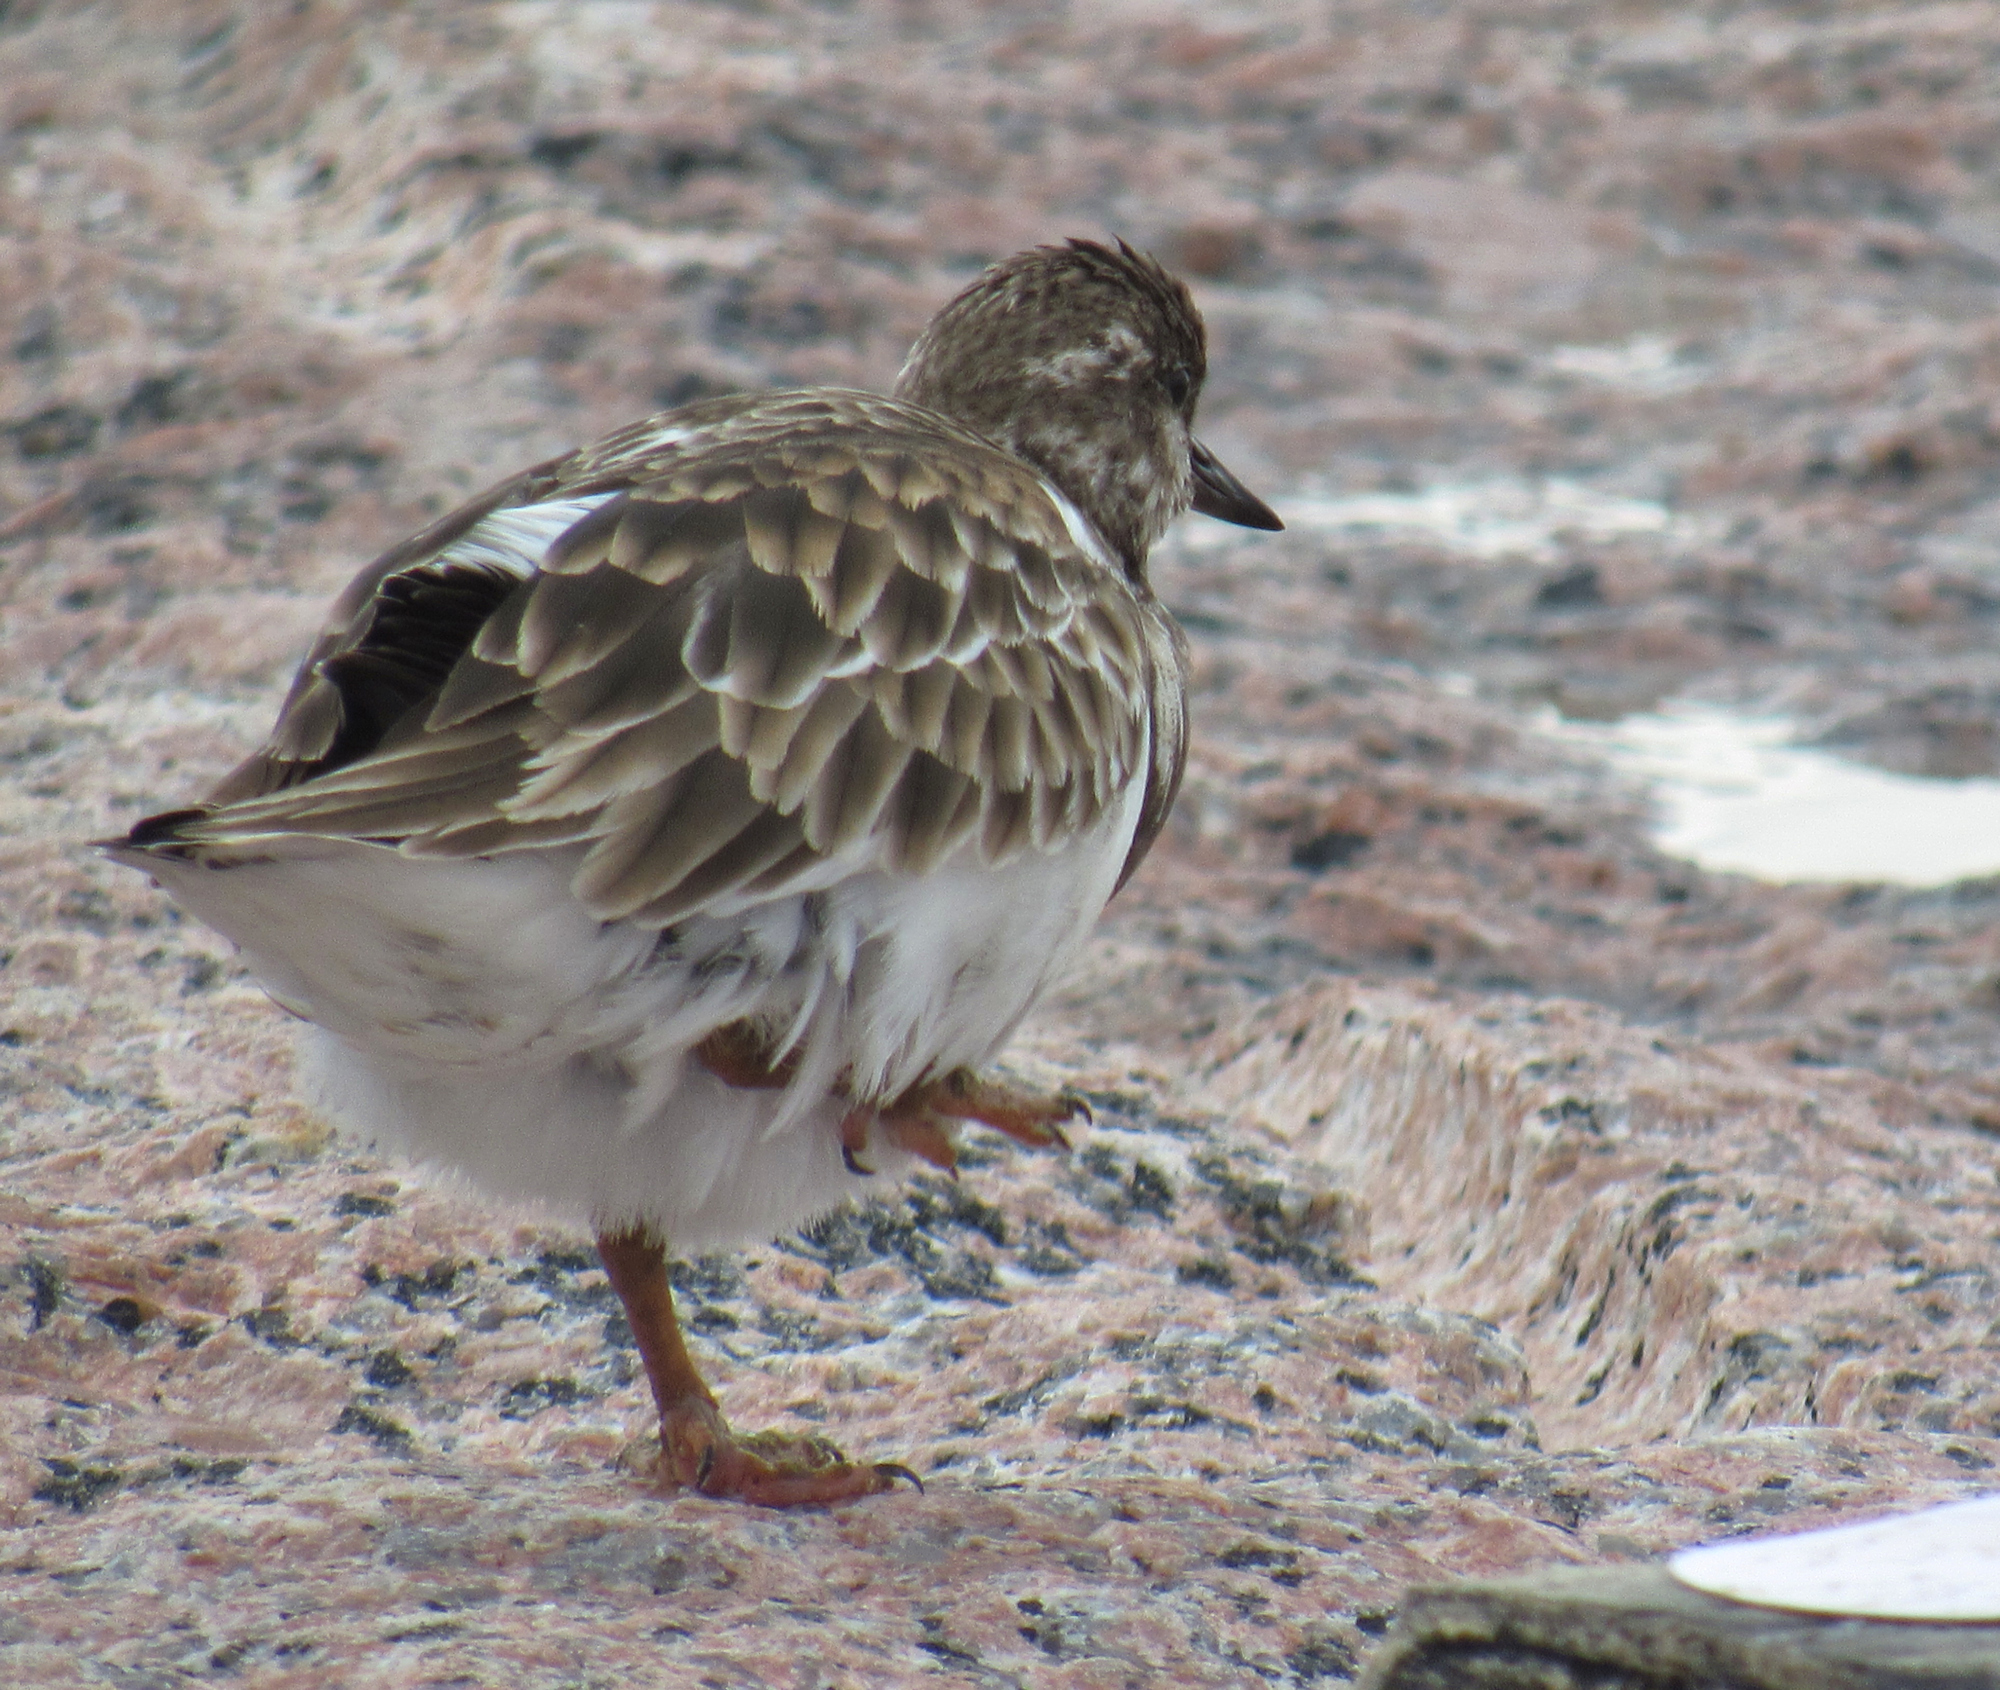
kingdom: Animalia
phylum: Chordata
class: Aves
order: Charadriiformes
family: Scolopacidae
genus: Arenaria
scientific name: Arenaria interpres
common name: Ruddy turnstone
